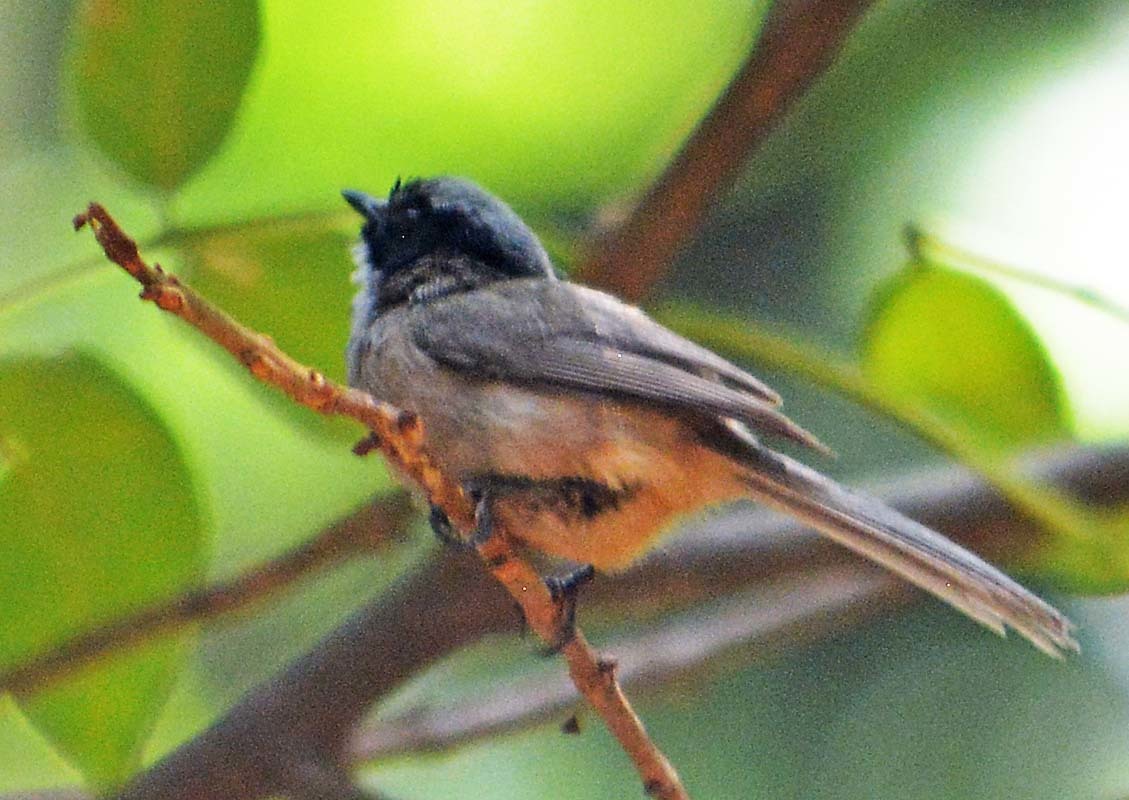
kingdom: Animalia
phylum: Chordata
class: Aves
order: Passeriformes
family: Aegithalidae
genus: Psaltriparus
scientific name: Psaltriparus minimus
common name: American bushtit
